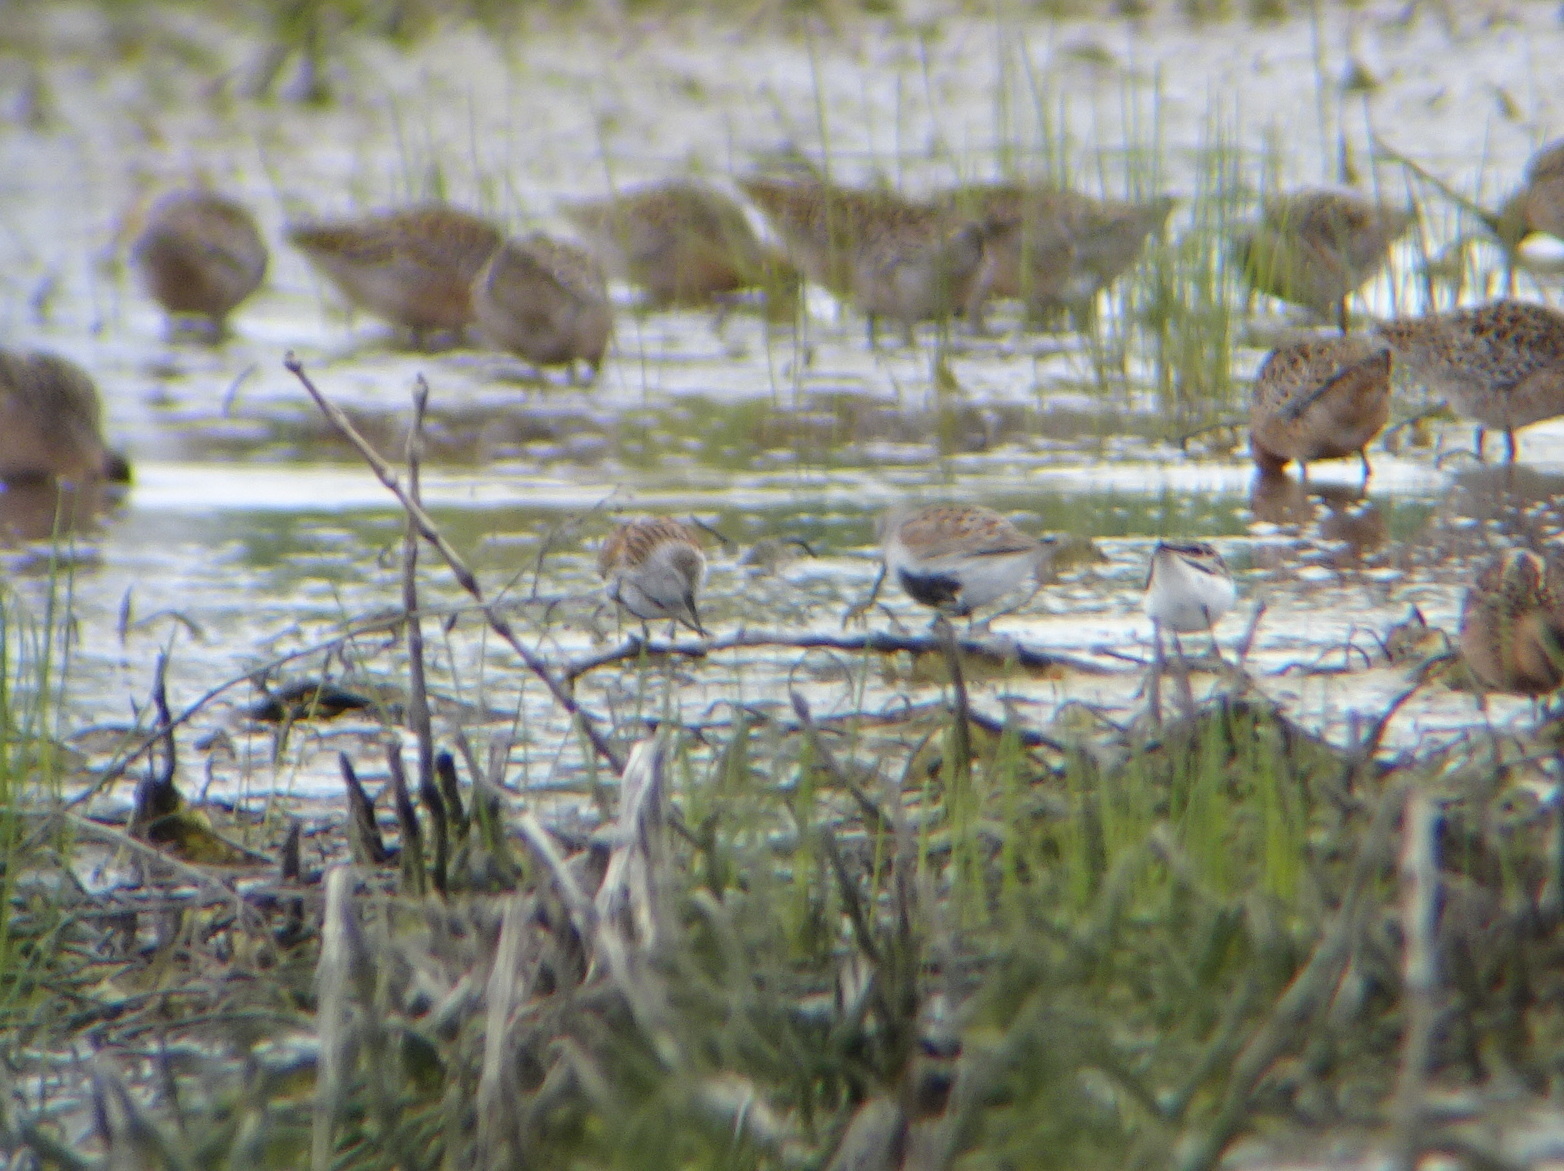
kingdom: Animalia
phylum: Chordata
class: Aves
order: Charadriiformes
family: Scolopacidae
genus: Calidris
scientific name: Calidris alpina
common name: Dunlin
